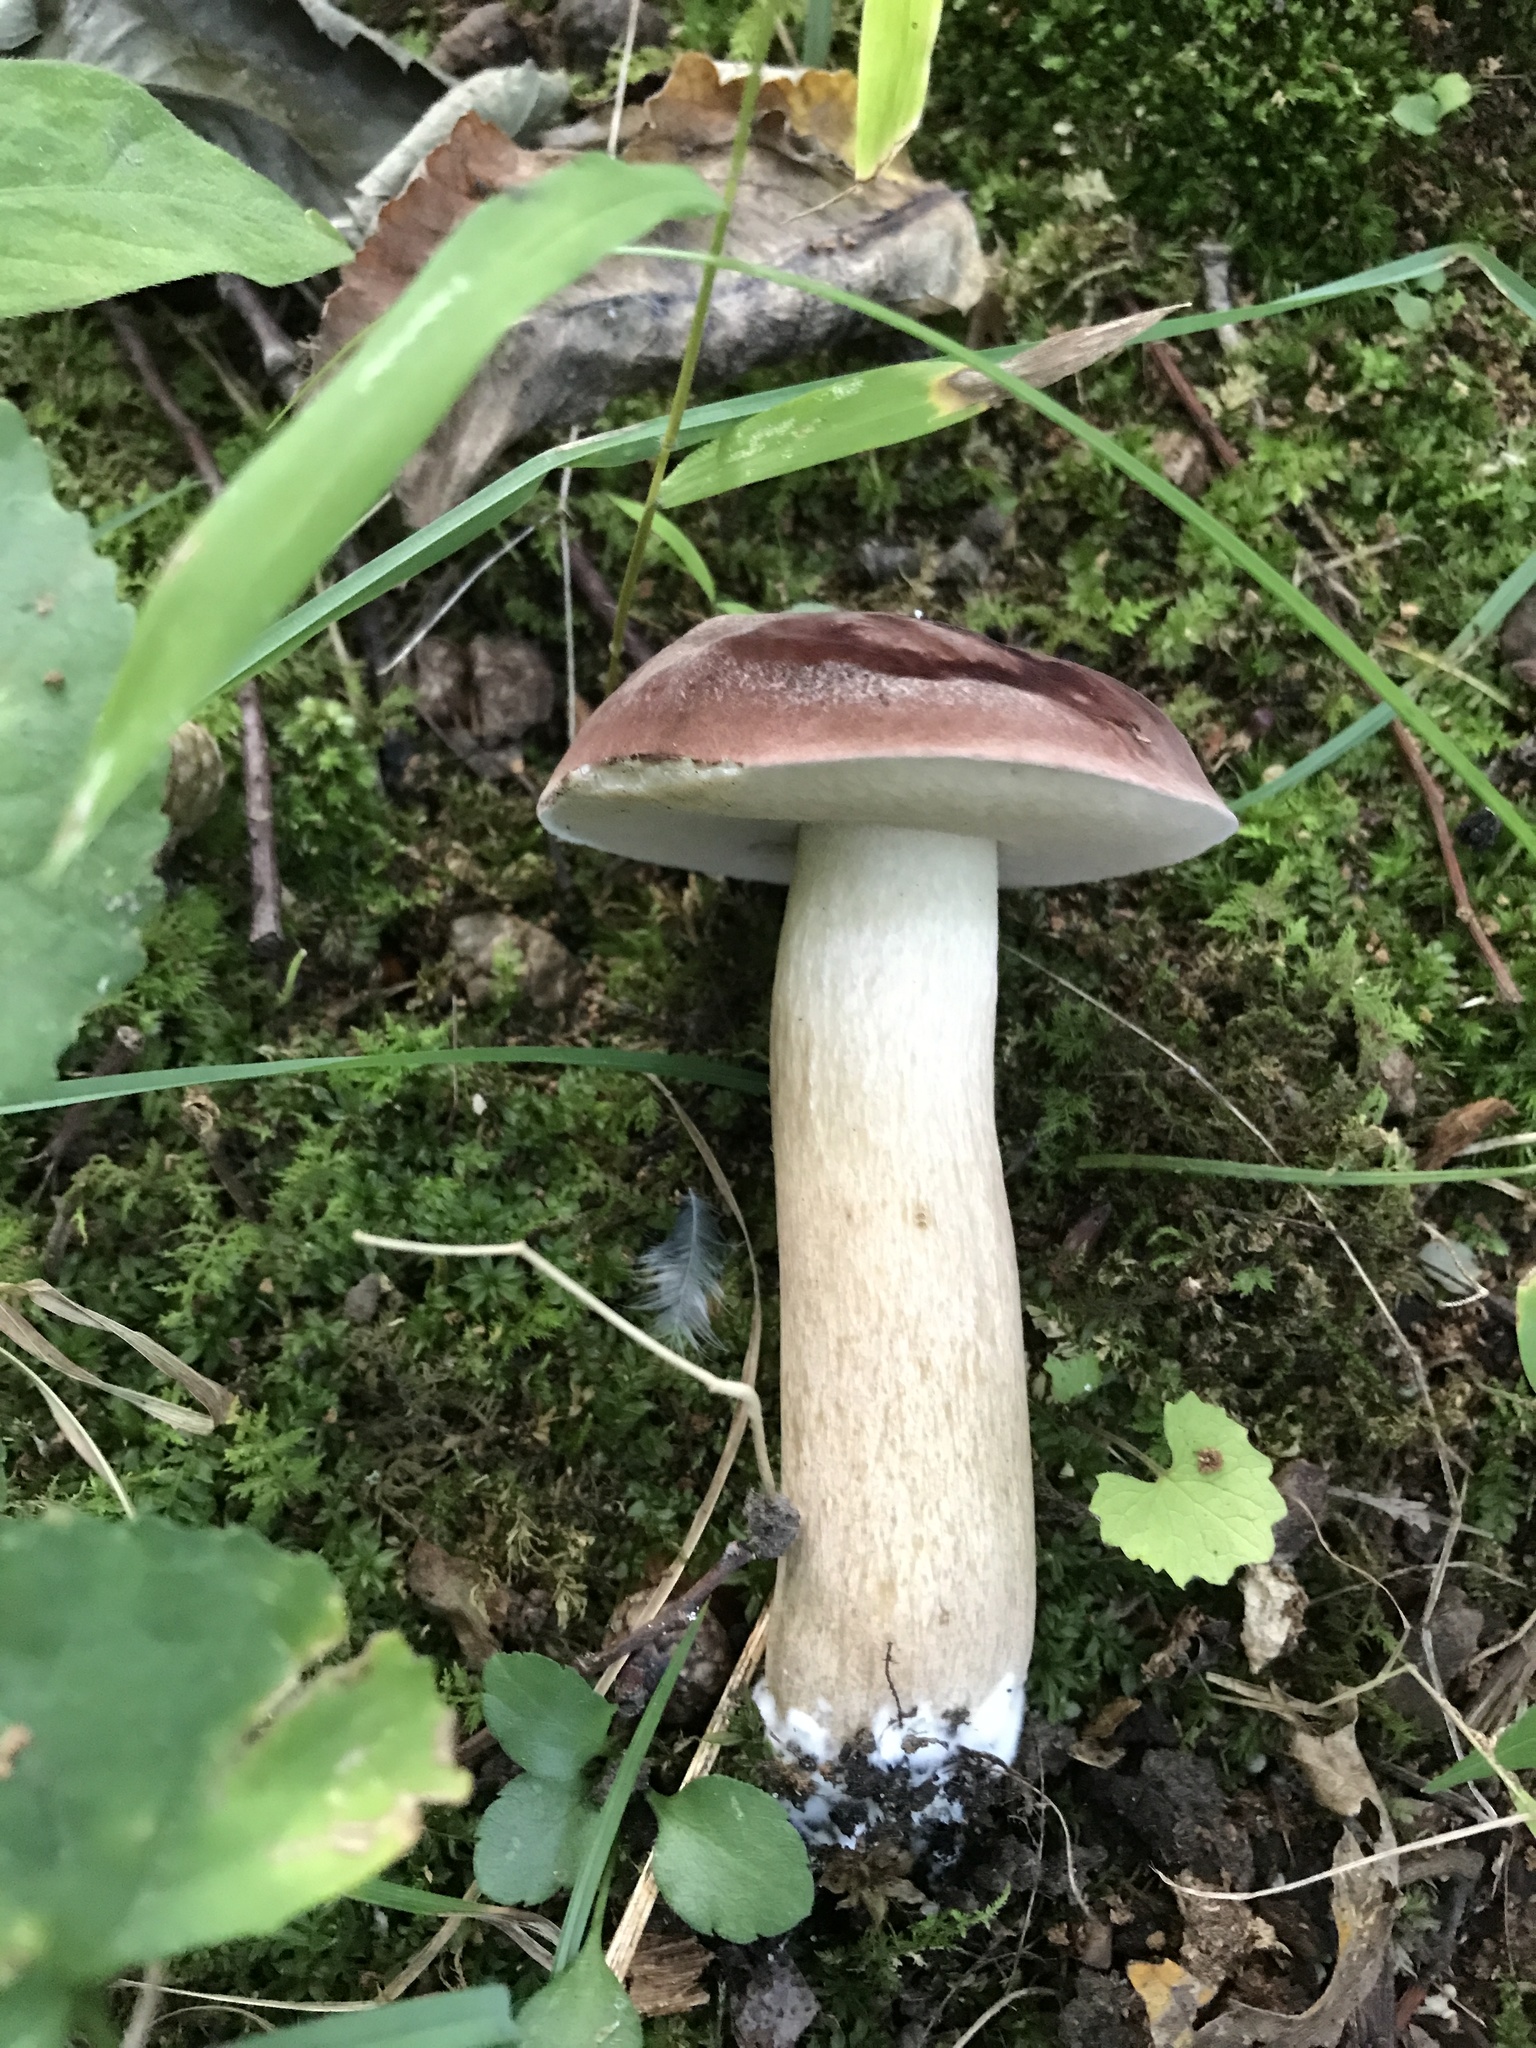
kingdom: Fungi
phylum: Basidiomycota
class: Agaricomycetes
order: Boletales
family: Boletaceae
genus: Tylopilus
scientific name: Tylopilus rubrobrunneus
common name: Reddish brown bitter bolete
